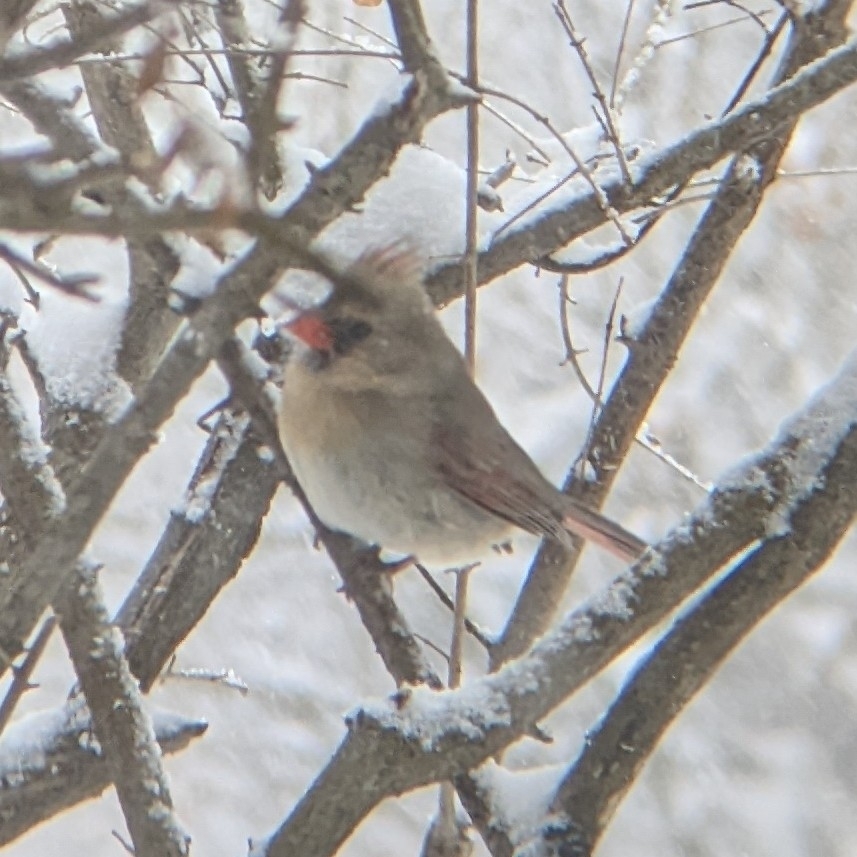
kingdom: Animalia
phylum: Chordata
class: Aves
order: Passeriformes
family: Cardinalidae
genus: Cardinalis
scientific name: Cardinalis cardinalis
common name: Northern cardinal
